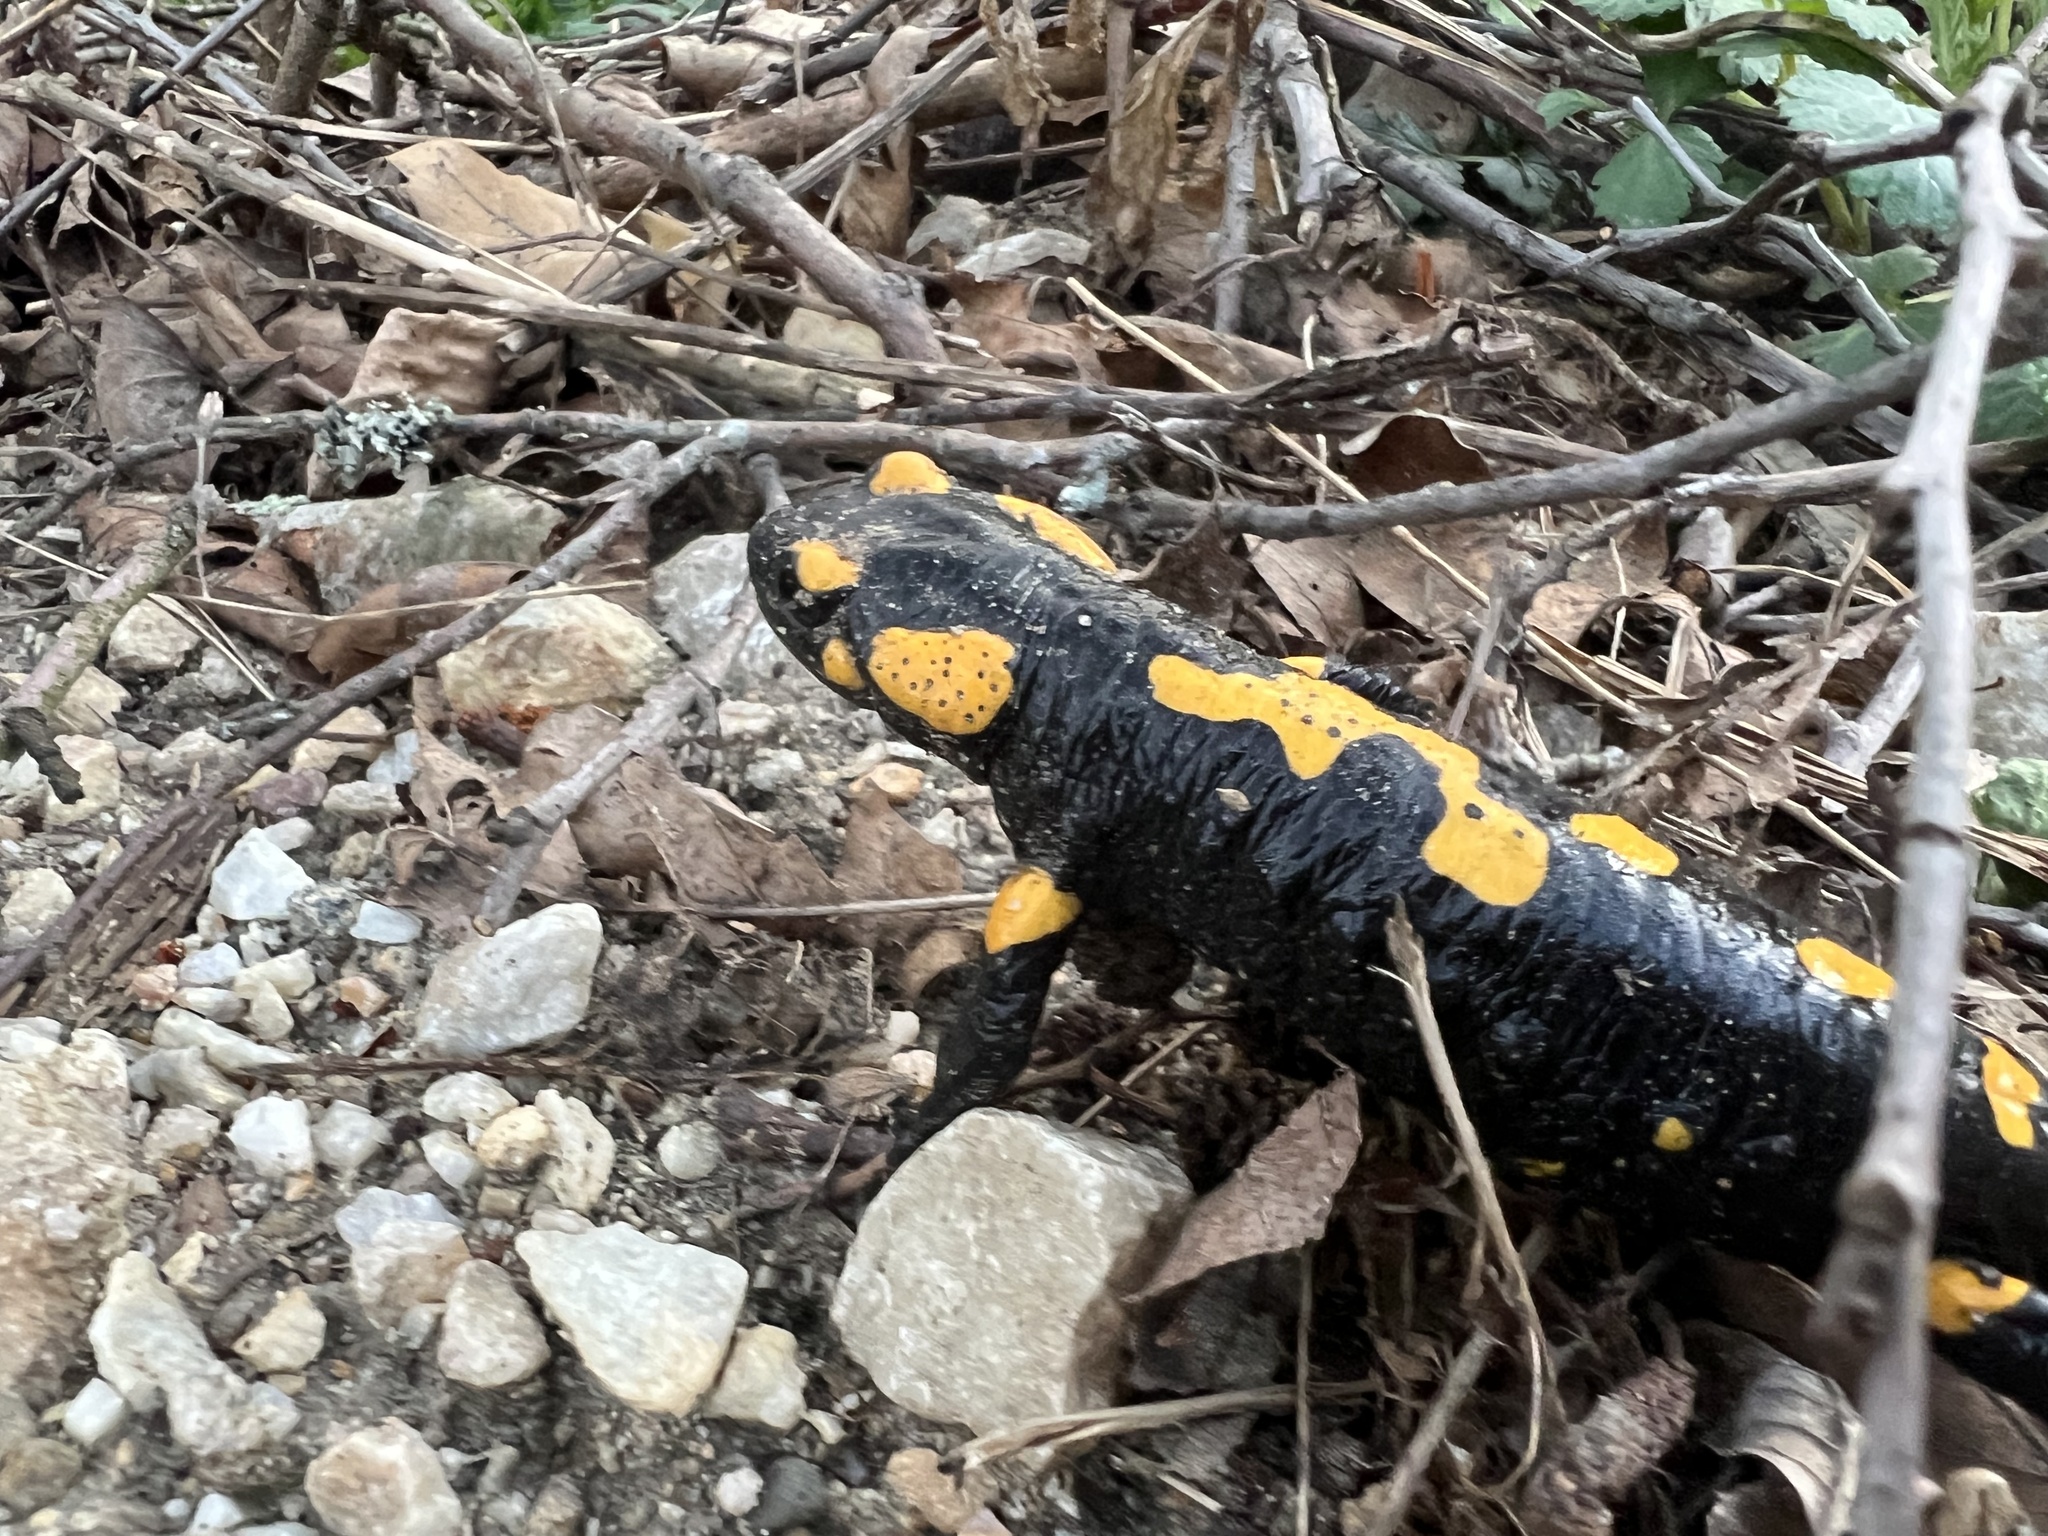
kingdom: Animalia
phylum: Chordata
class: Amphibia
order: Caudata
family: Salamandridae
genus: Salamandra
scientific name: Salamandra salamandra
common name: Fire salamander
